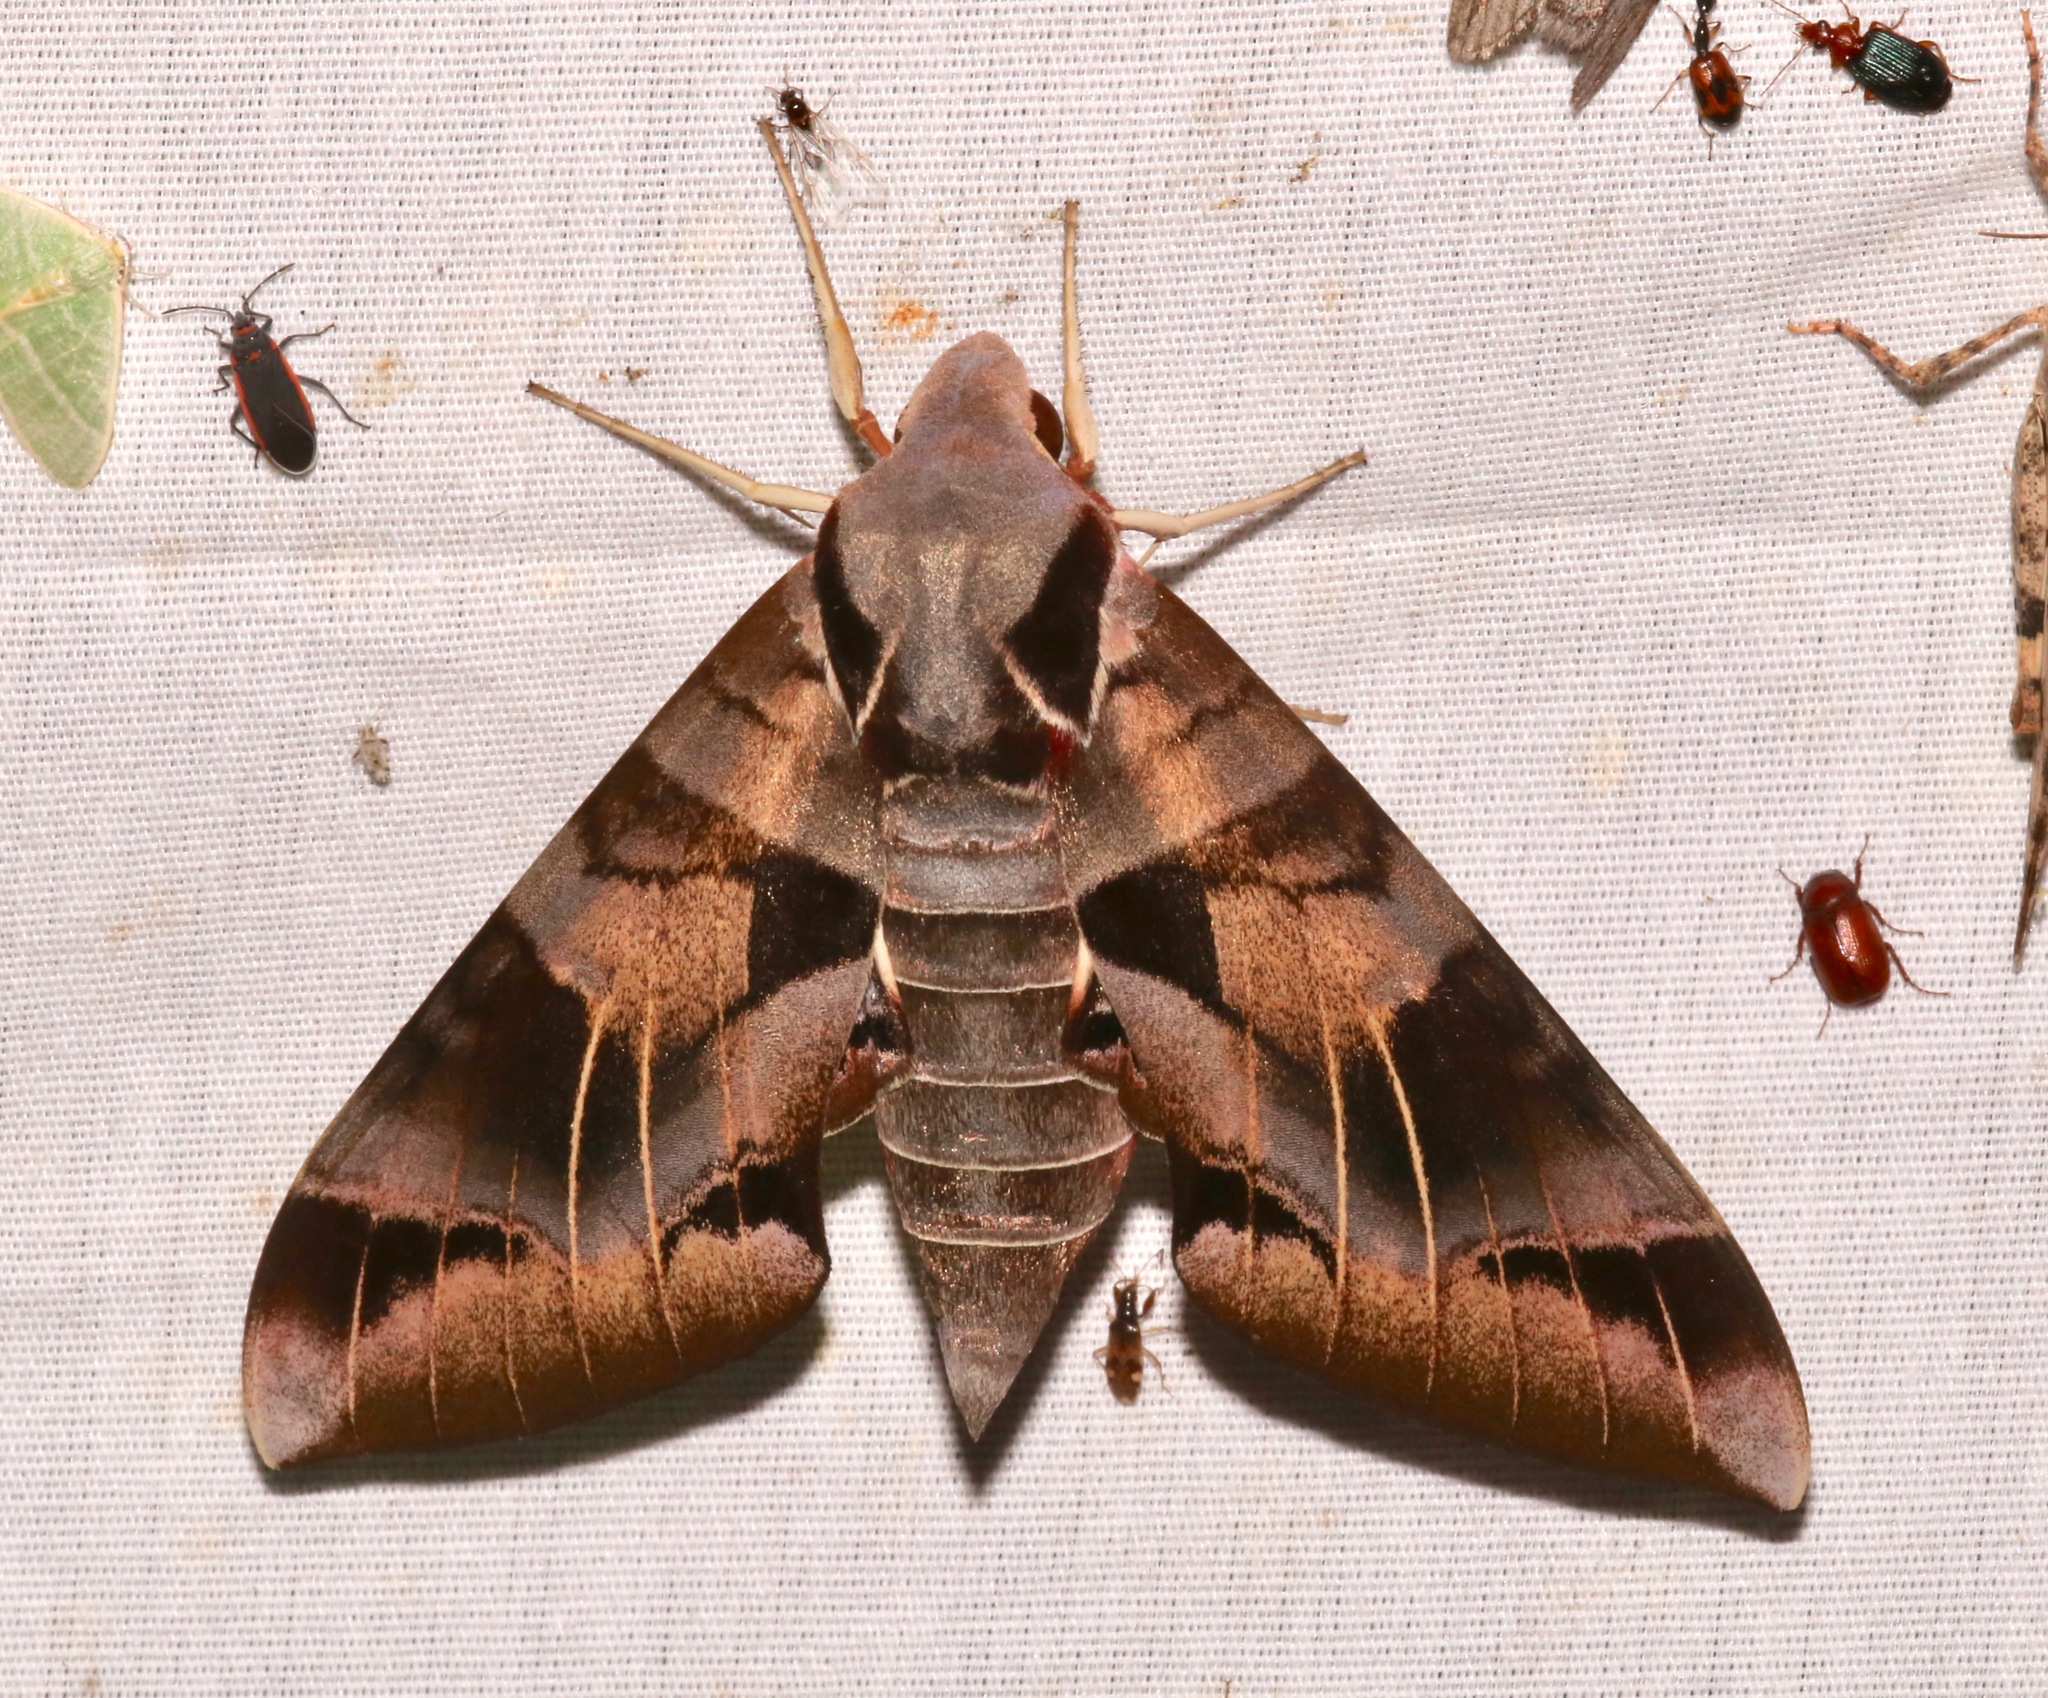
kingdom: Animalia
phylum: Arthropoda
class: Insecta
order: Lepidoptera
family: Sphingidae
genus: Eumorpha
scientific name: Eumorpha typhon
